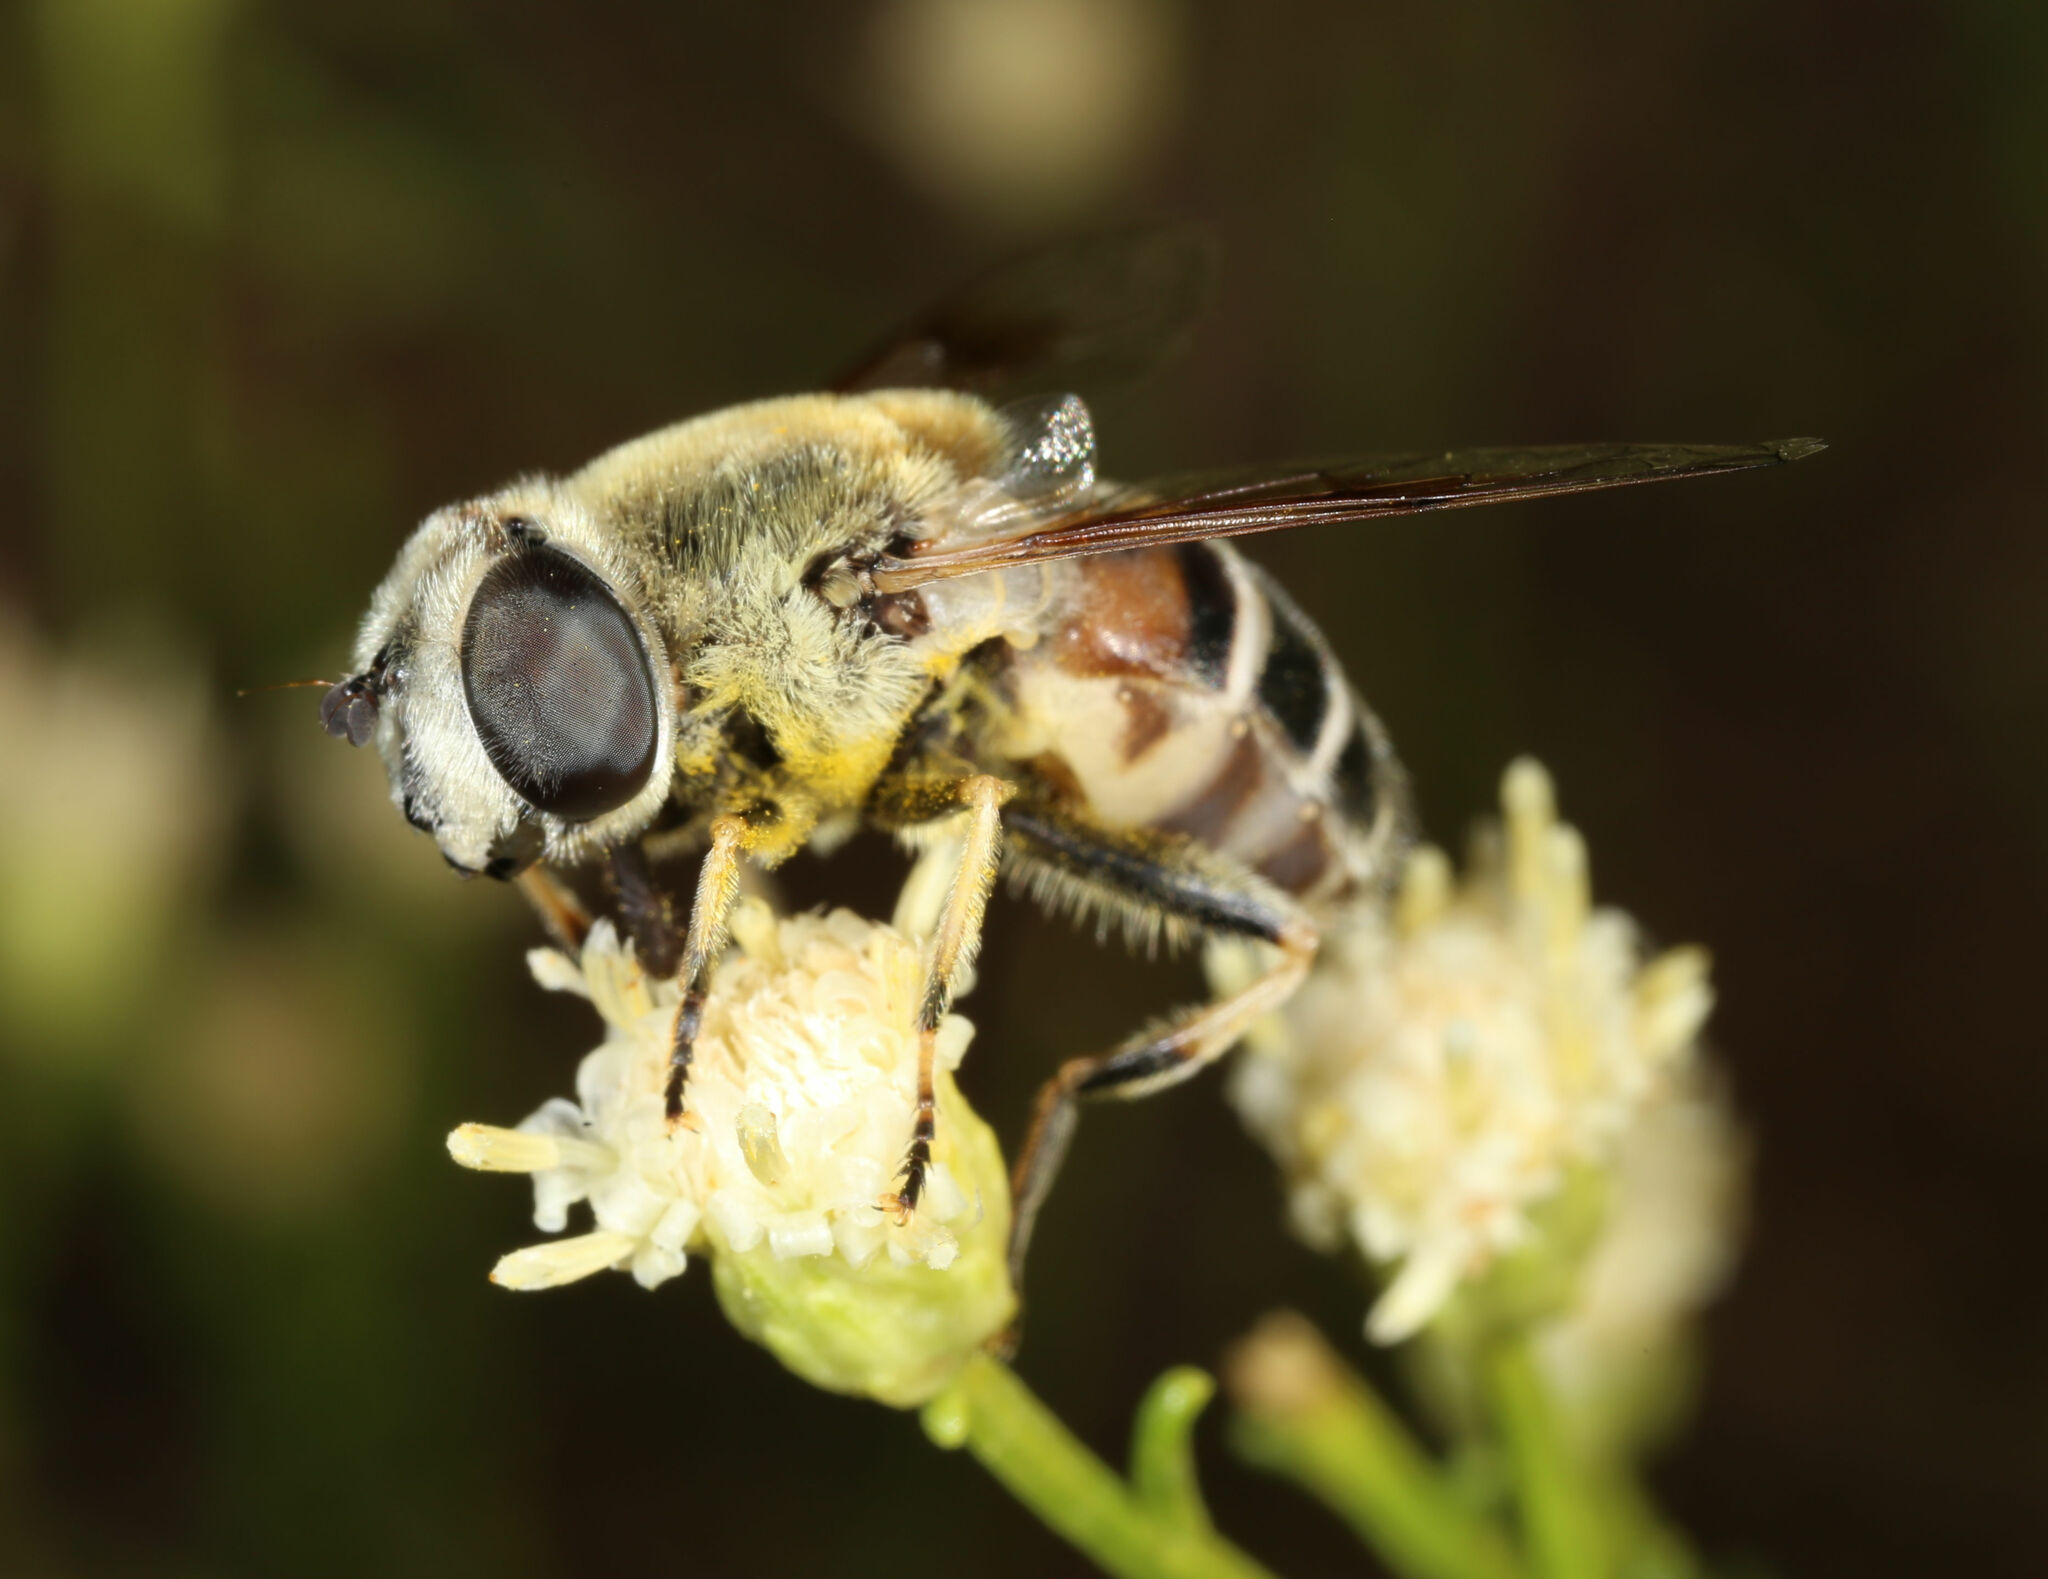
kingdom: Animalia
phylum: Arthropoda
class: Insecta
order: Diptera
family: Syrphidae
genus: Eristalis
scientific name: Eristalis stipator
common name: Yellow-shouldered drone fly
